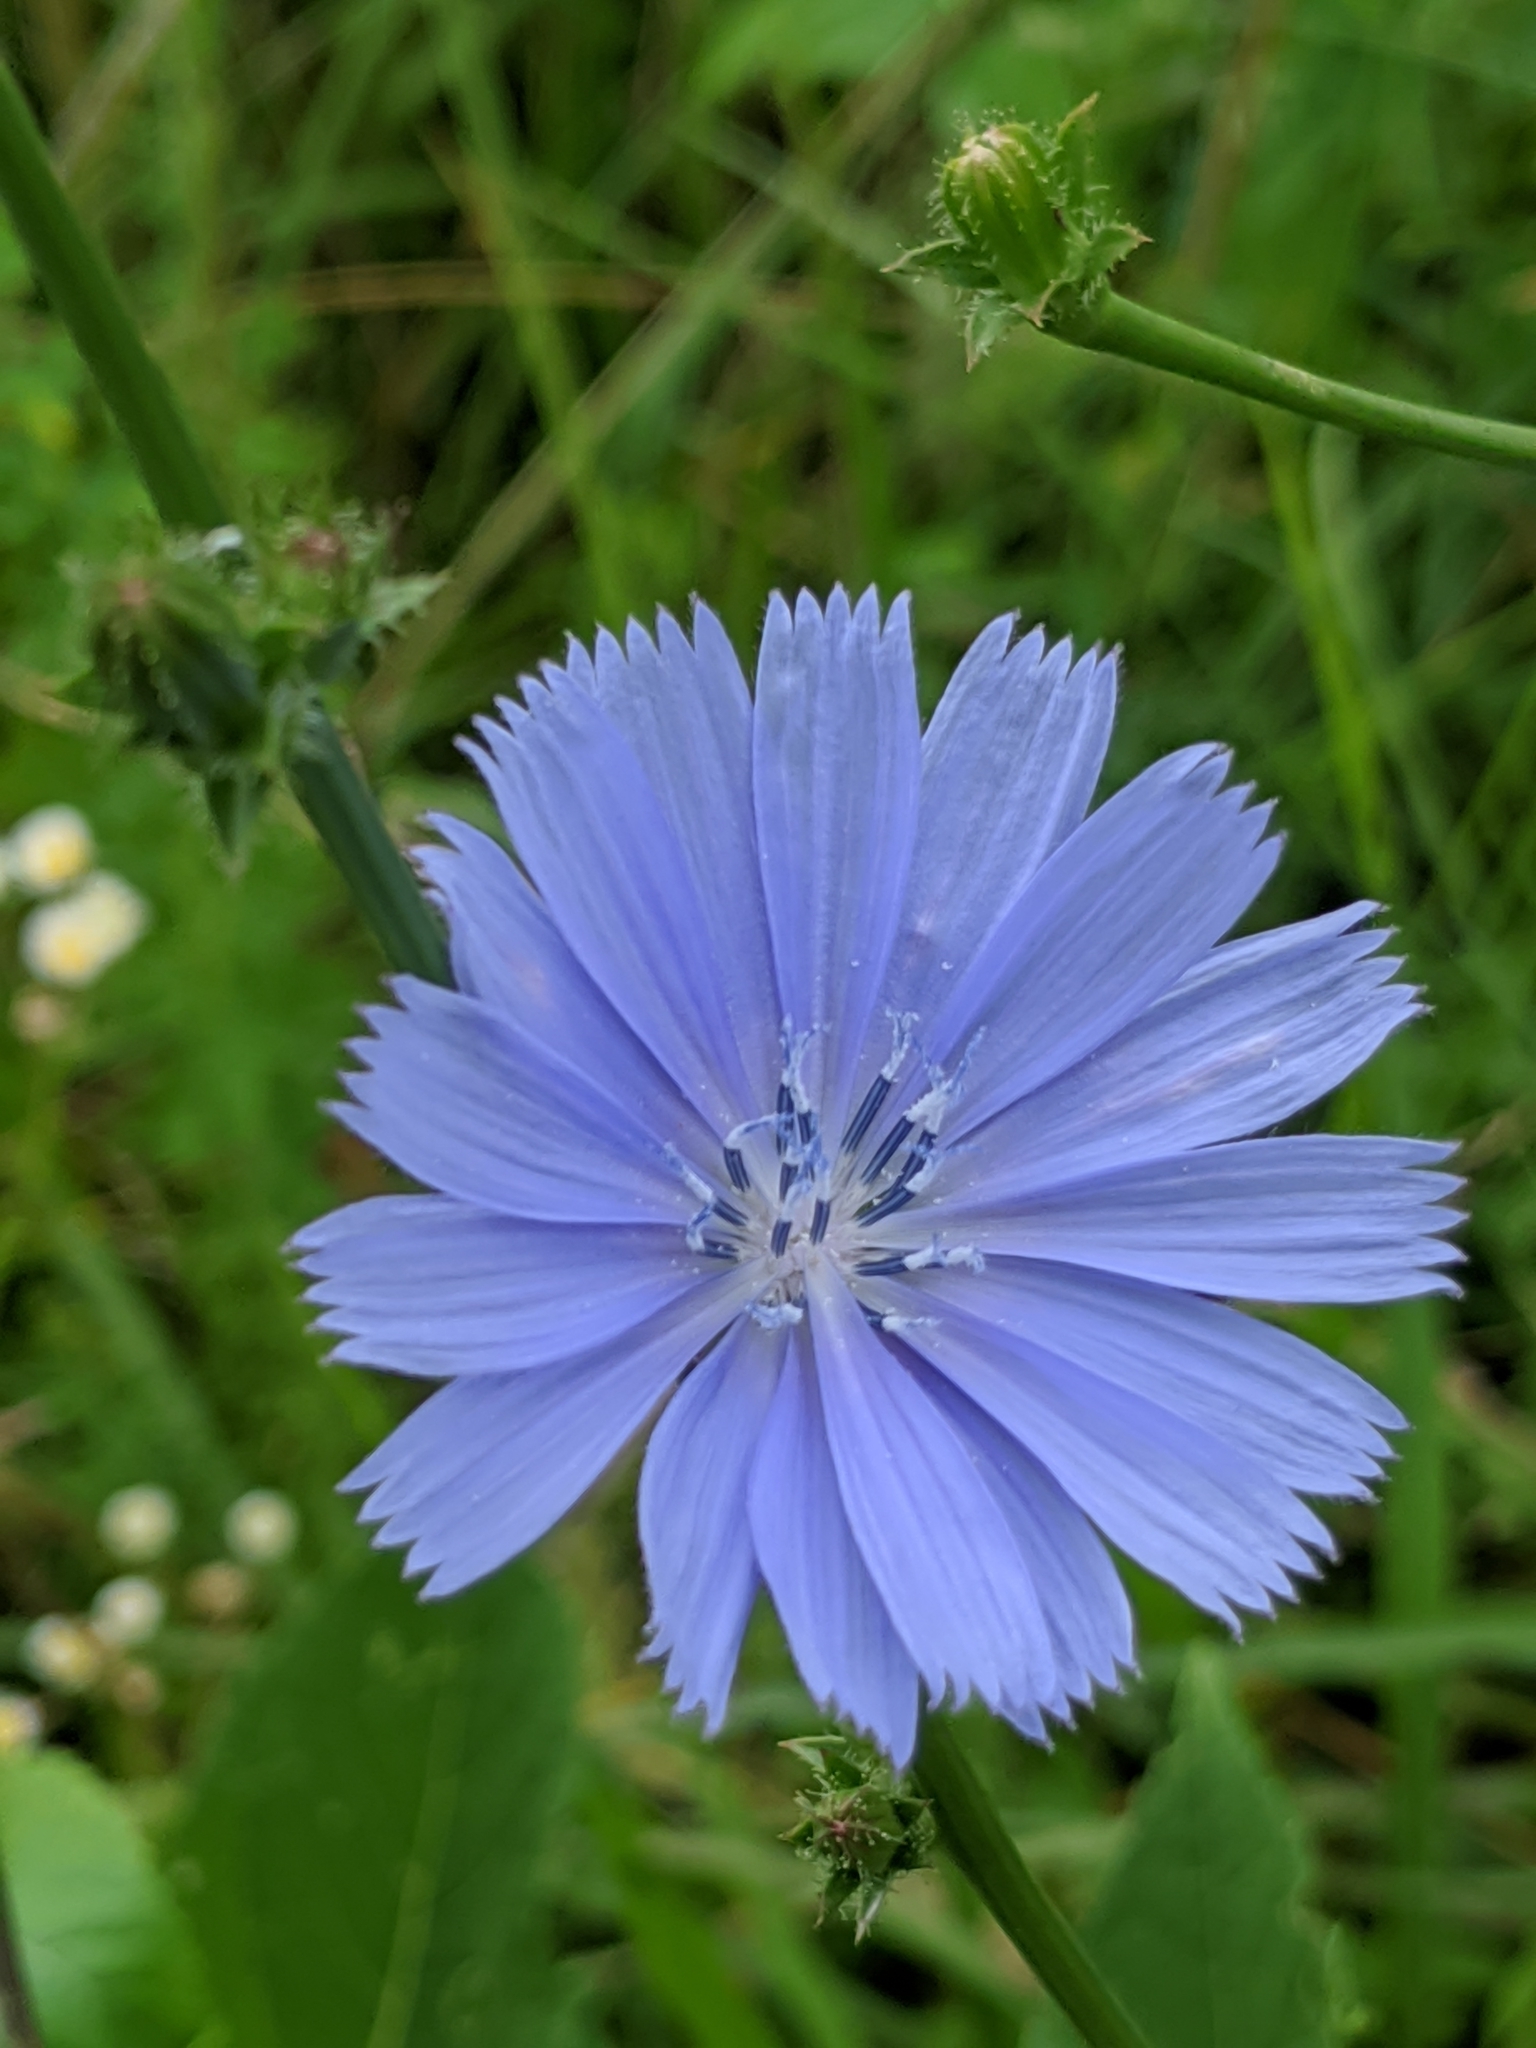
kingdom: Plantae
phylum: Tracheophyta
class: Magnoliopsida
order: Asterales
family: Asteraceae
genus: Cichorium
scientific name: Cichorium intybus
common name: Chicory
